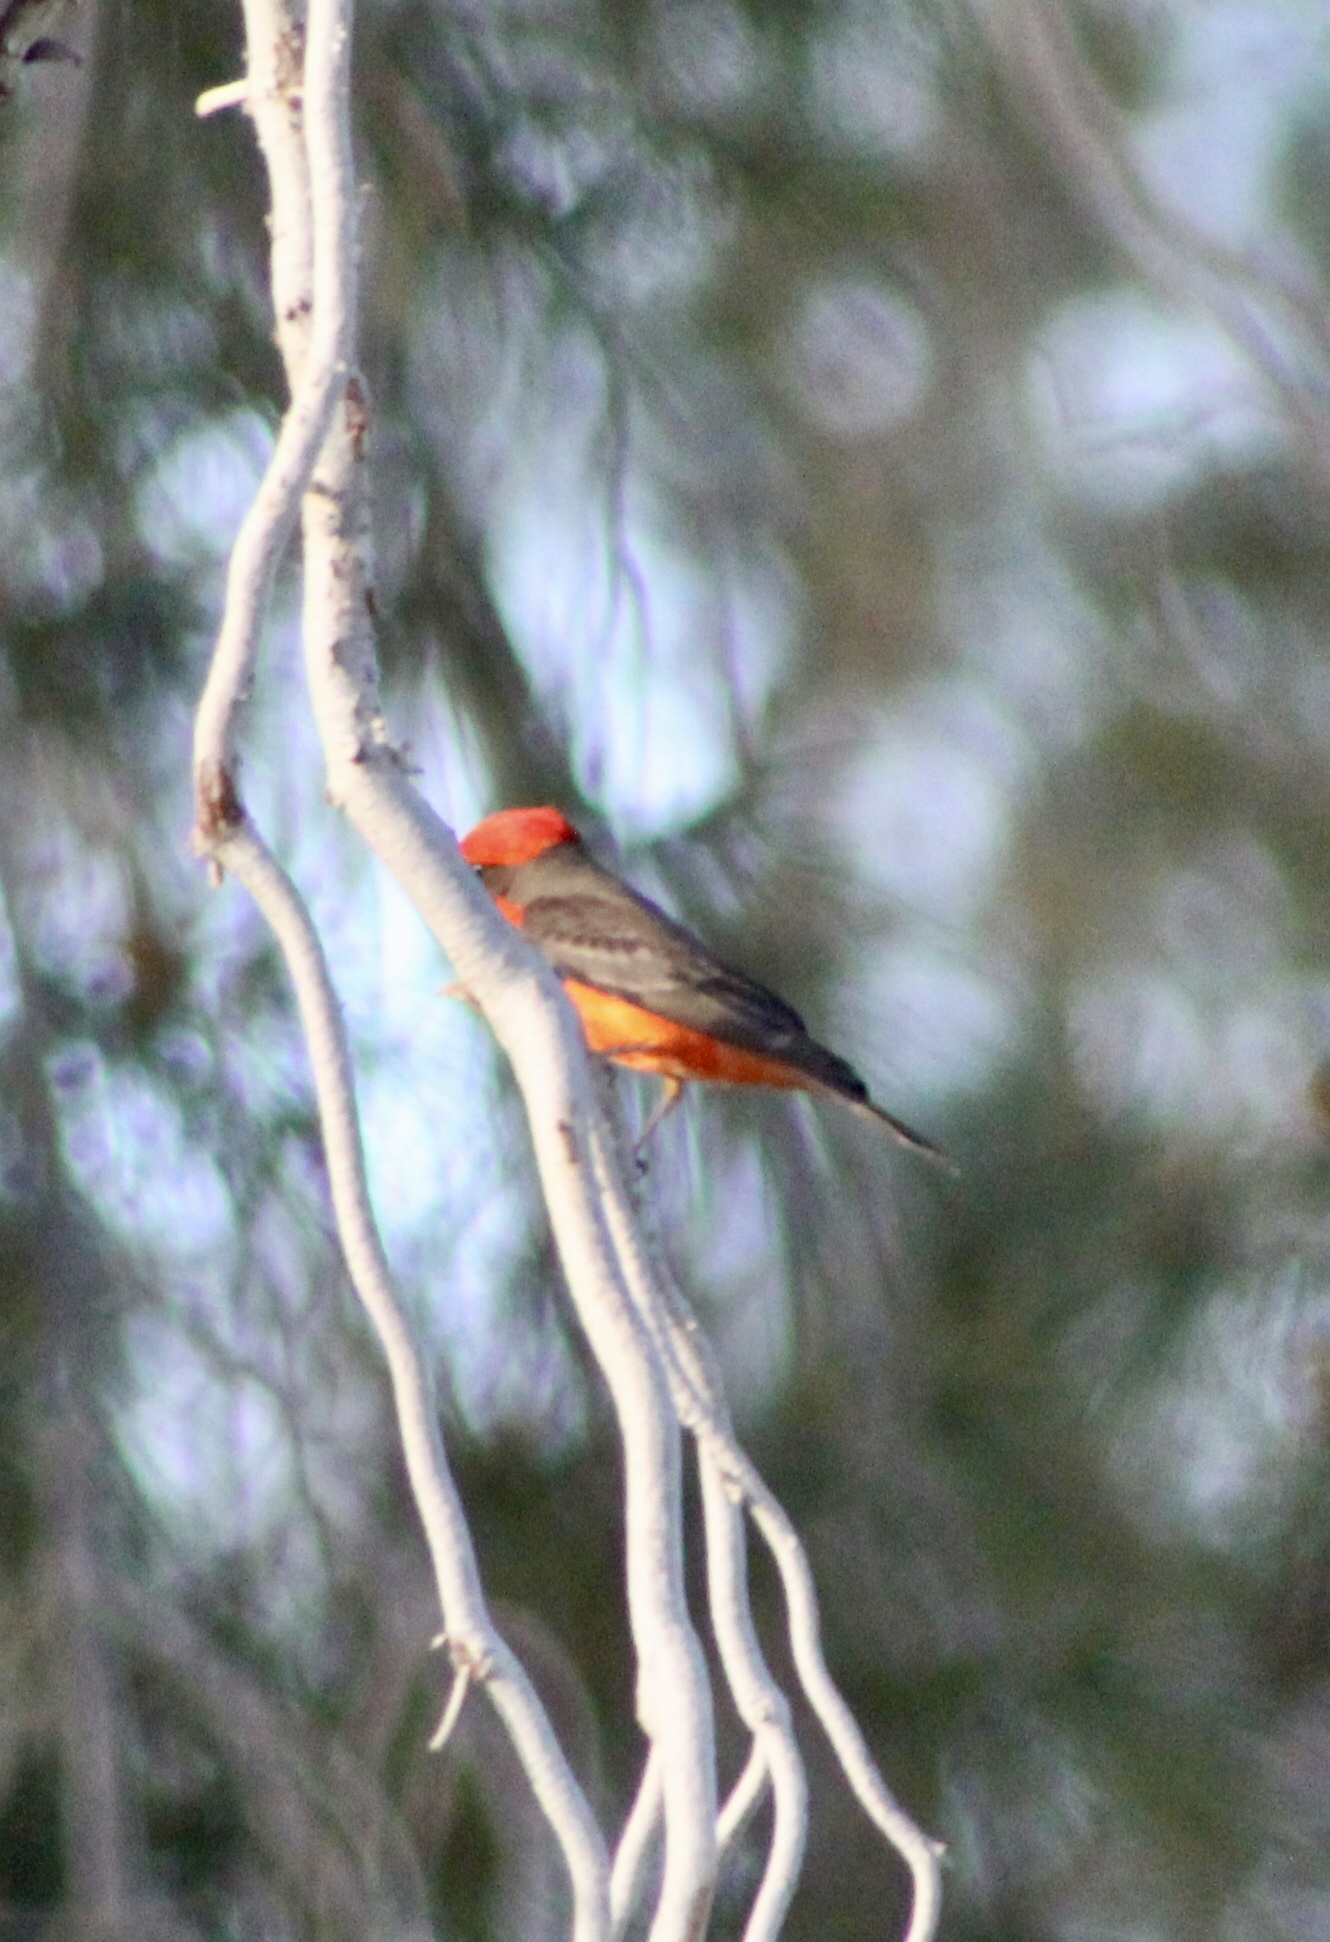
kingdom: Animalia
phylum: Chordata
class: Aves
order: Passeriformes
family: Tyrannidae
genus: Pyrocephalus
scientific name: Pyrocephalus rubinus
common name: Vermilion flycatcher
